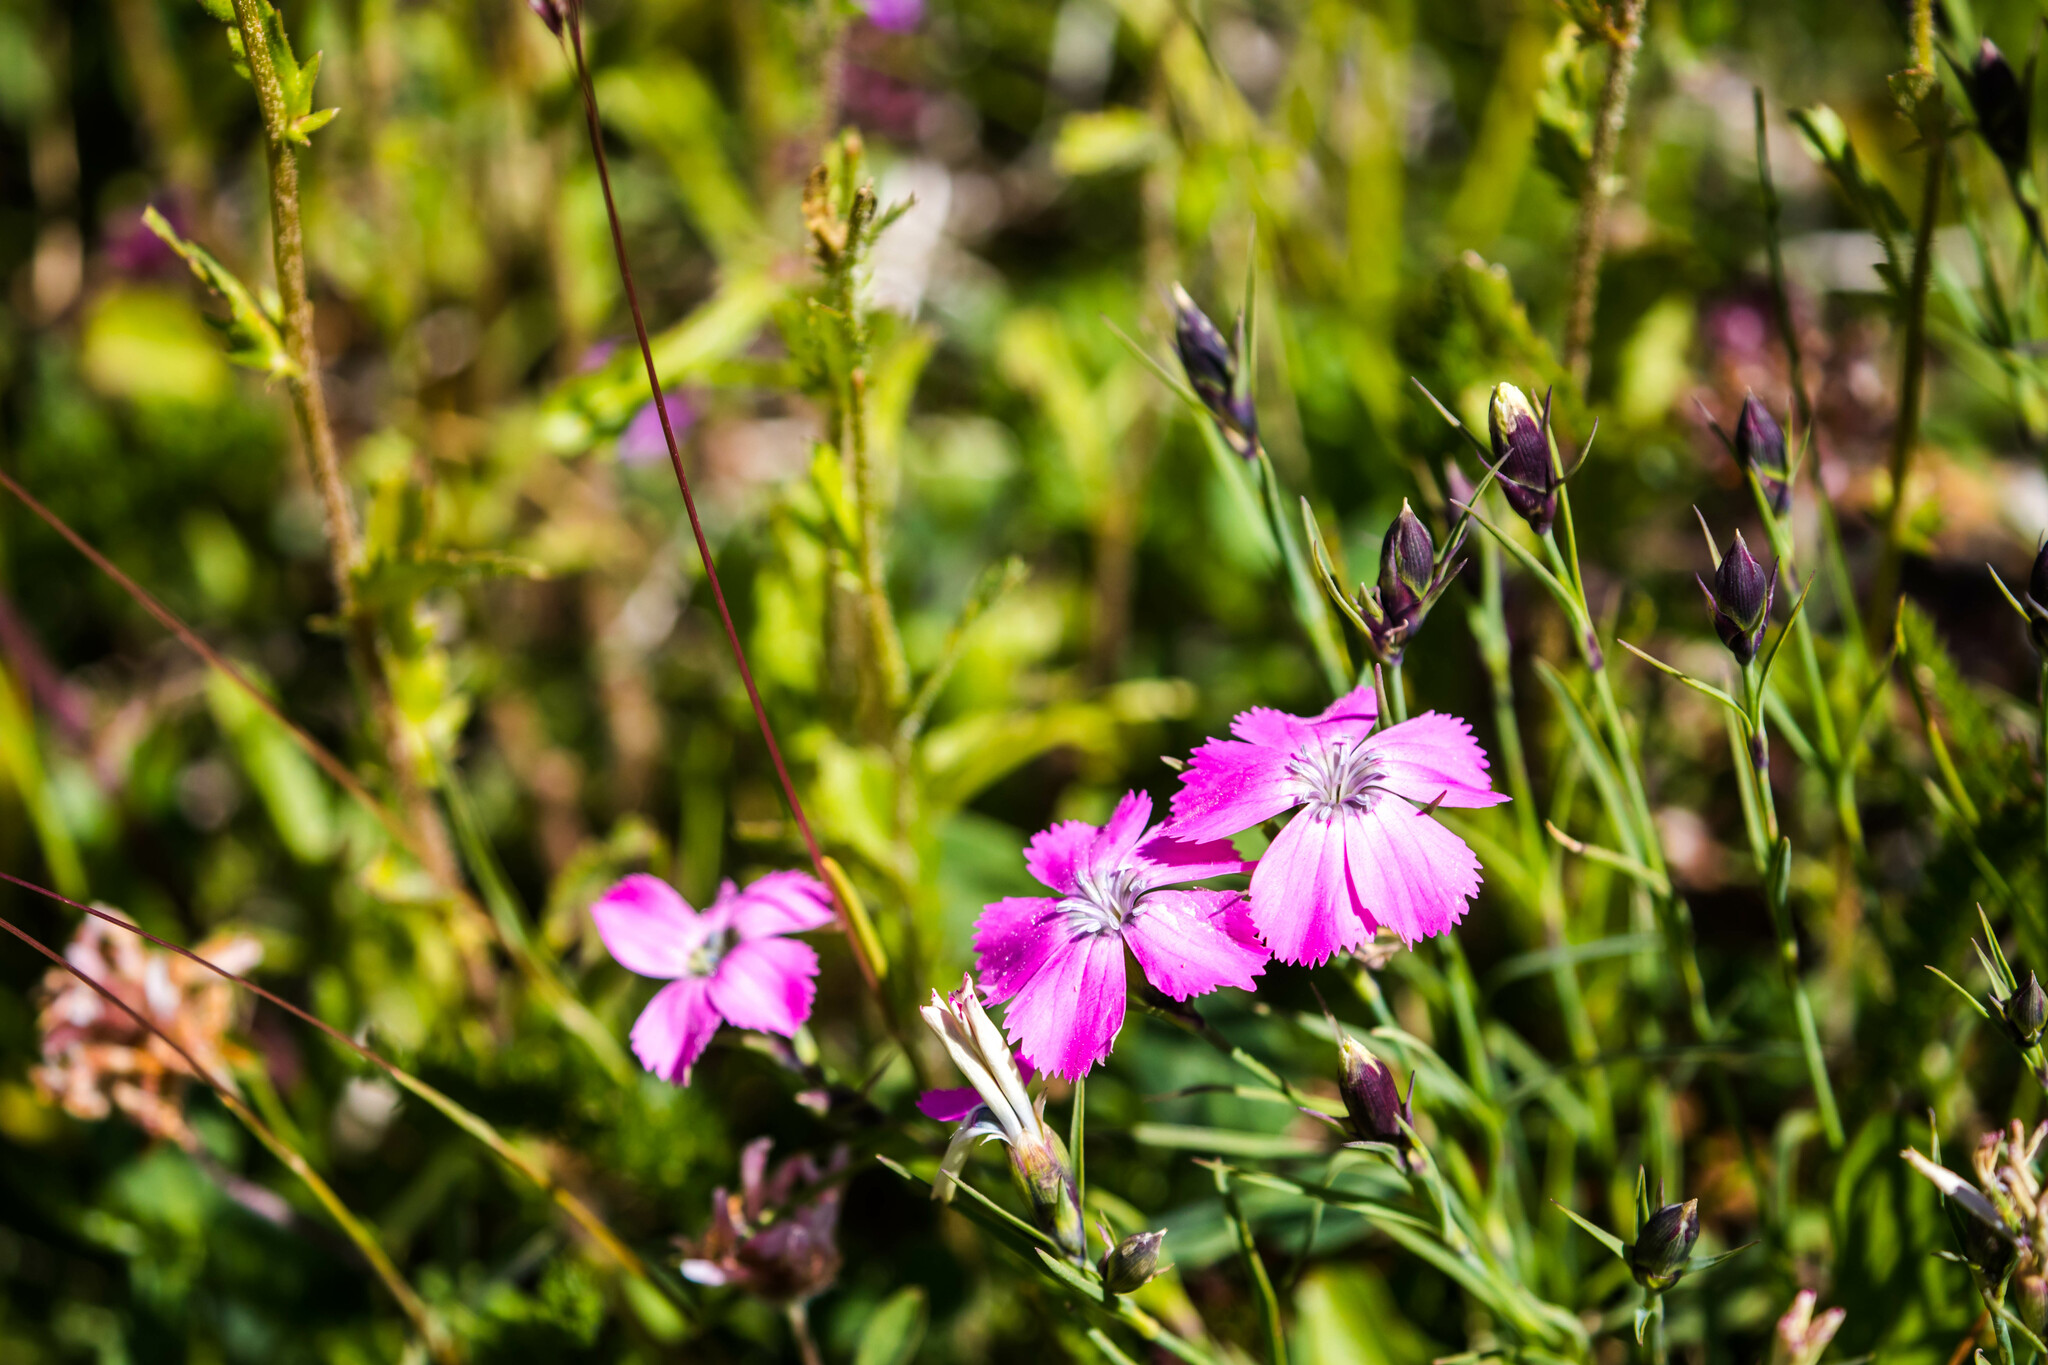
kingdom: Plantae
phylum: Tracheophyta
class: Magnoliopsida
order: Caryophyllales
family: Caryophyllaceae
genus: Dianthus
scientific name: Dianthus pavonius
